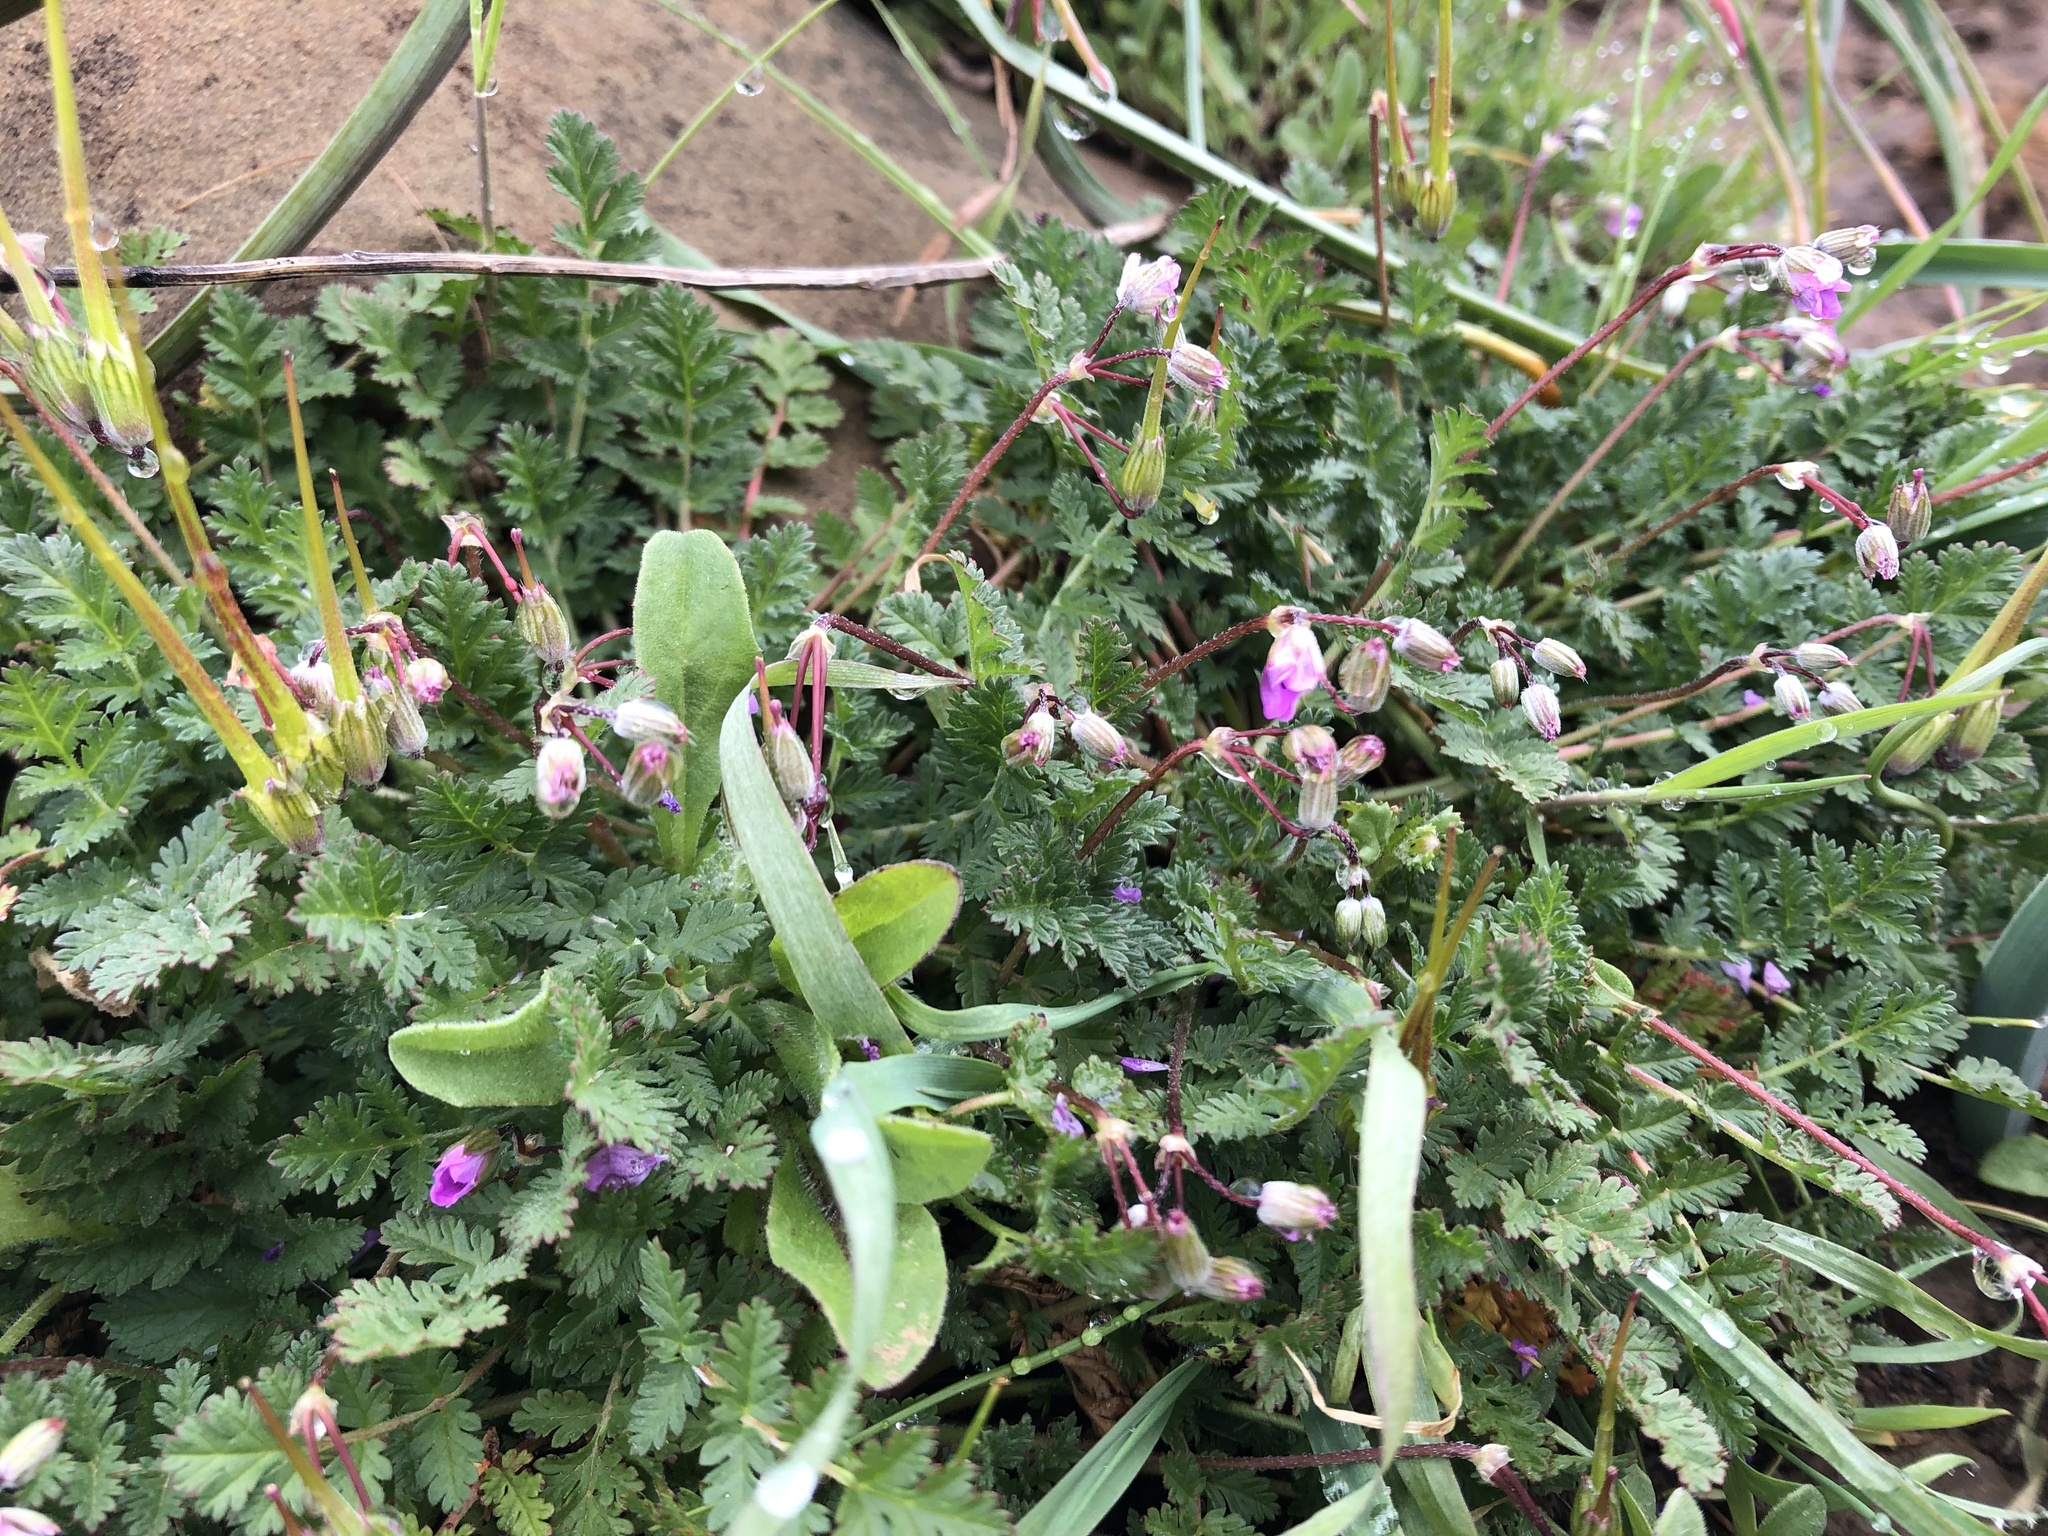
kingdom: Plantae
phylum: Tracheophyta
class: Magnoliopsida
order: Geraniales
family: Geraniaceae
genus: Erodium
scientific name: Erodium cicutarium
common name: Common stork's-bill
